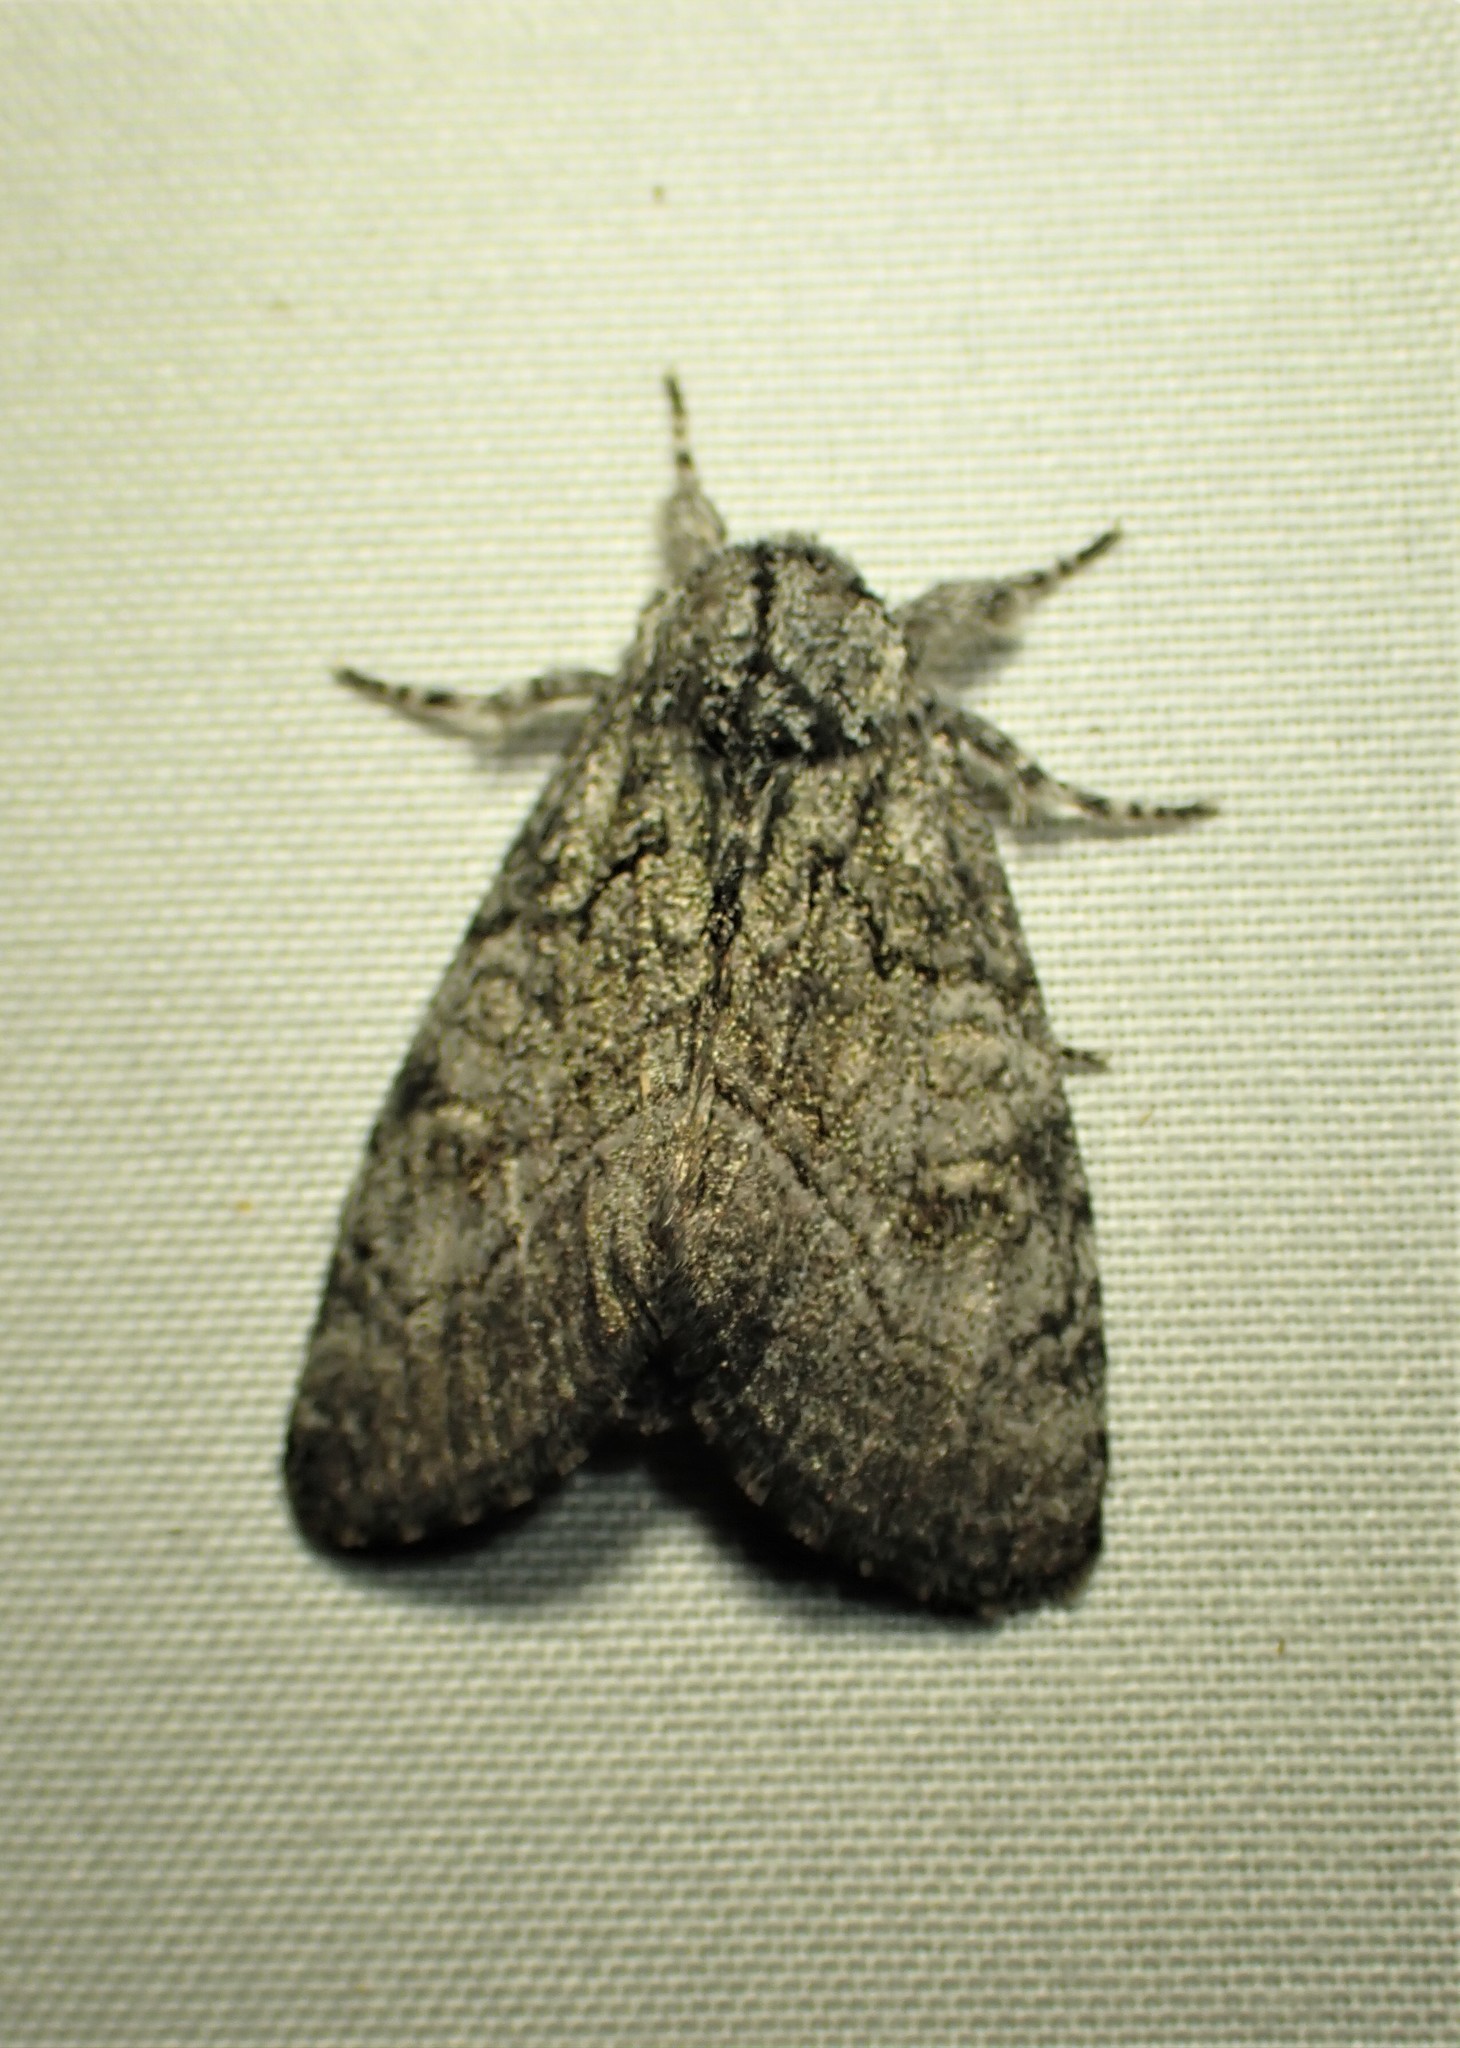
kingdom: Animalia
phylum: Arthropoda
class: Insecta
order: Lepidoptera
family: Noctuidae
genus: Raphia
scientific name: Raphia frater
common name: Brother
